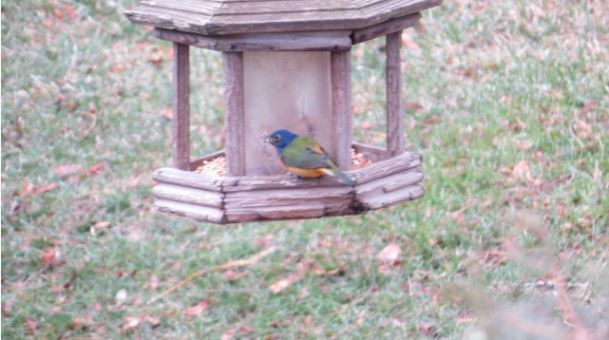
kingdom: Animalia
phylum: Chordata
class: Aves
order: Passeriformes
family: Cardinalidae
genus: Passerina
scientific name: Passerina ciris
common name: Painted bunting
